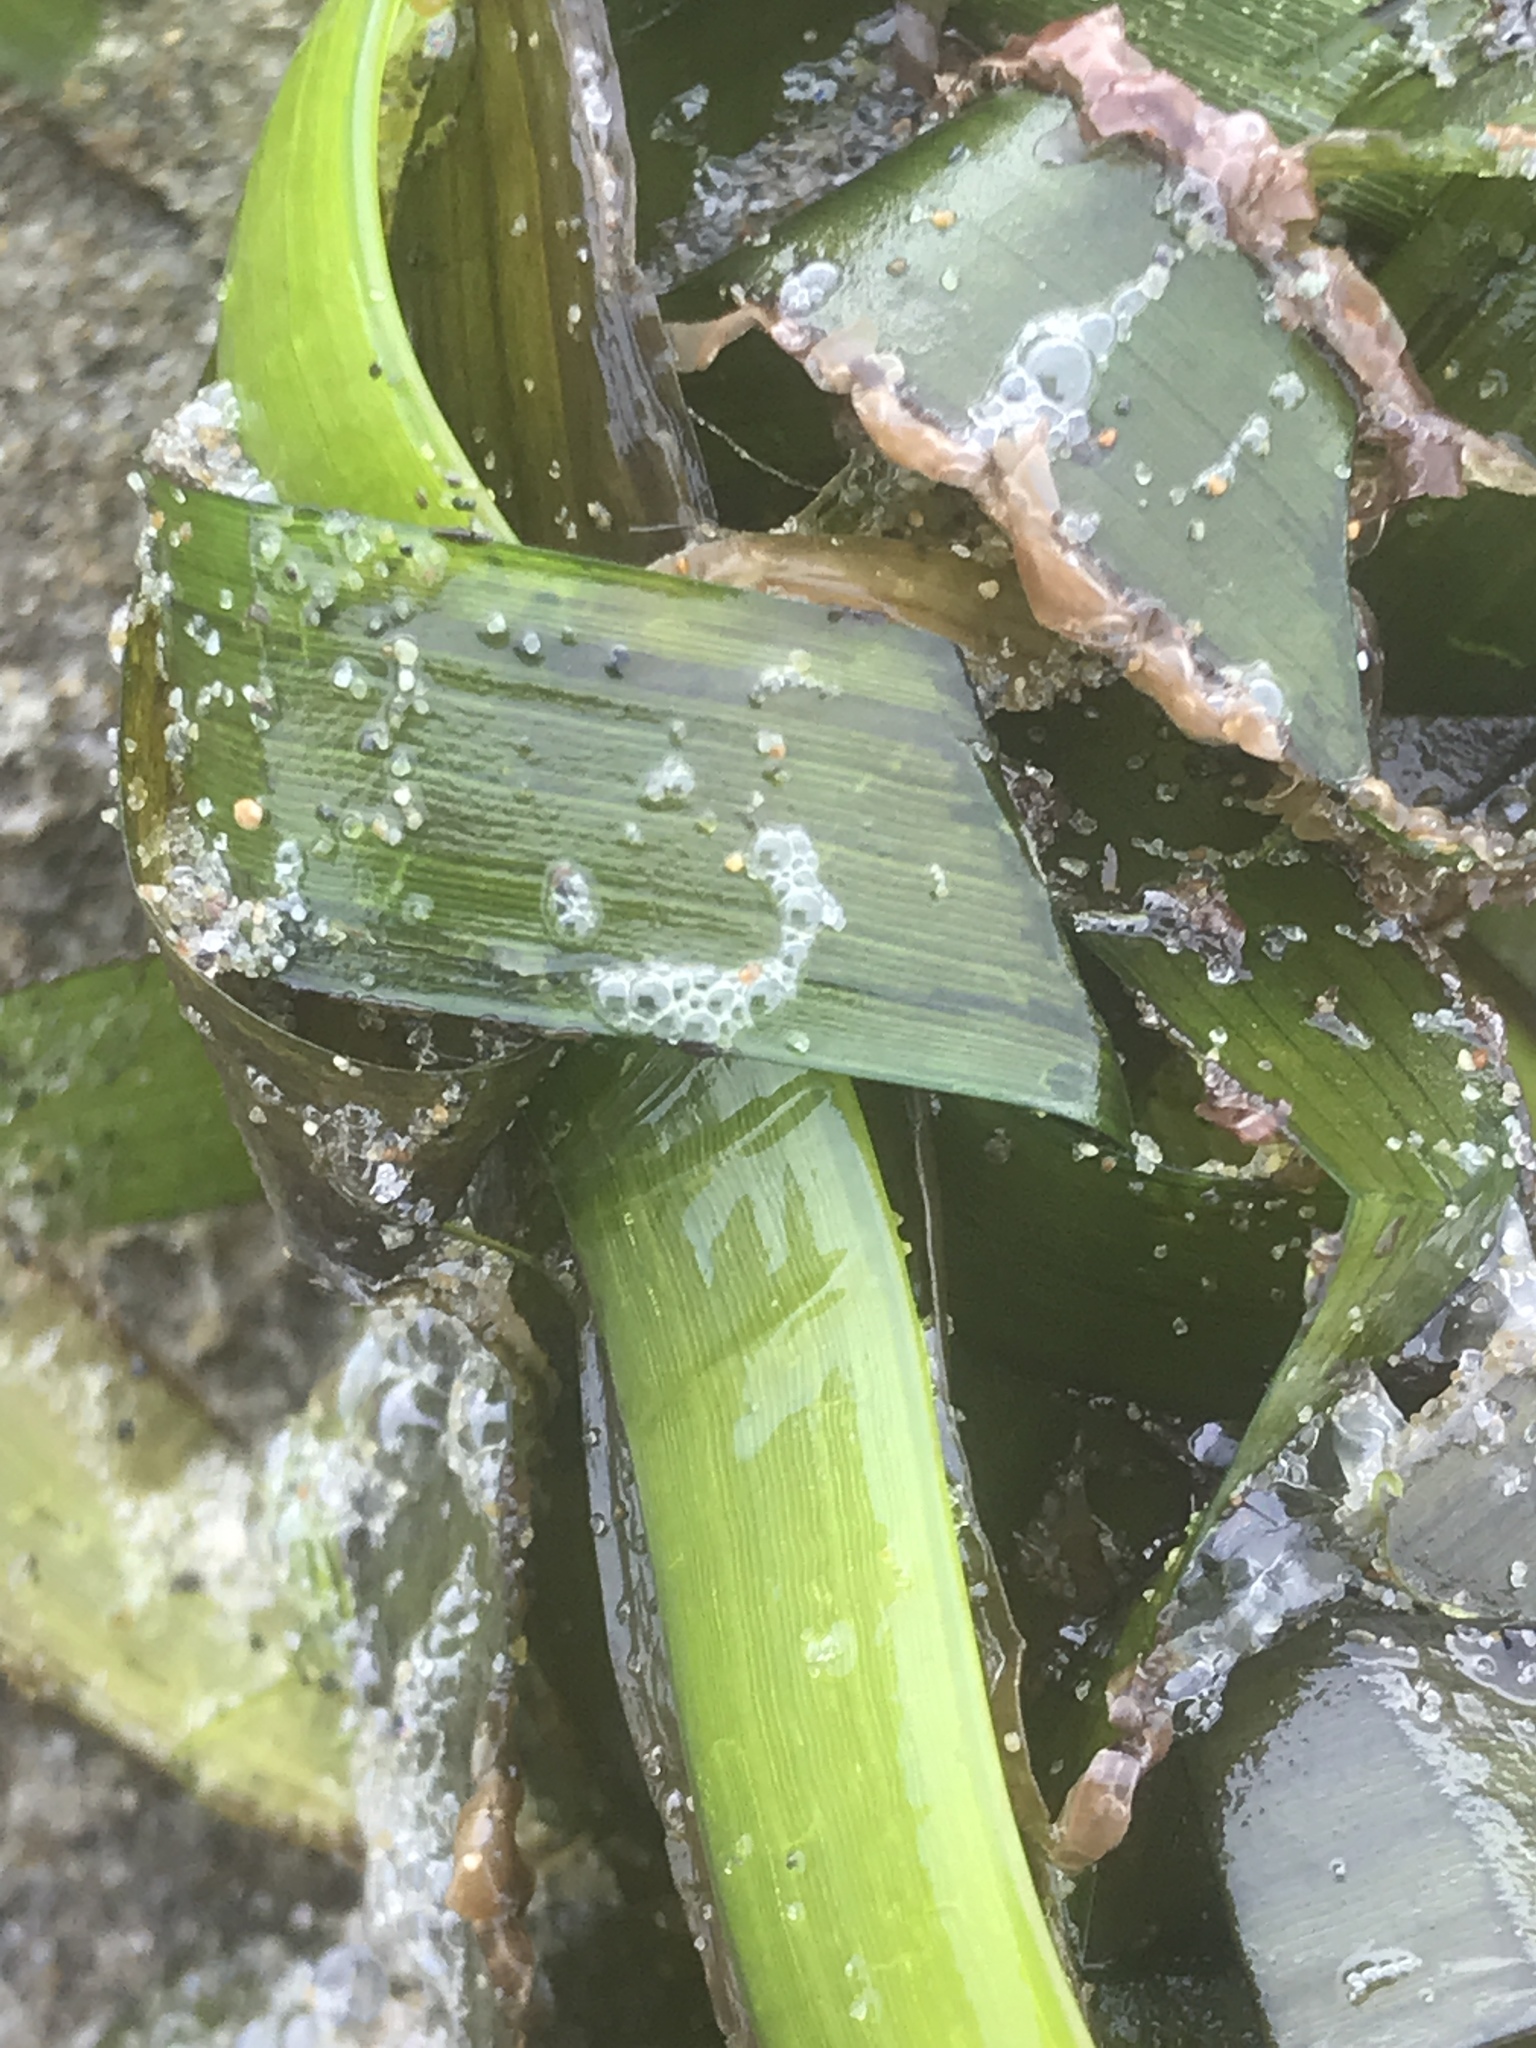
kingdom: Plantae
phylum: Tracheophyta
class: Liliopsida
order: Alismatales
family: Zosteraceae
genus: Zostera
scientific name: Zostera marina
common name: Eelgrass
